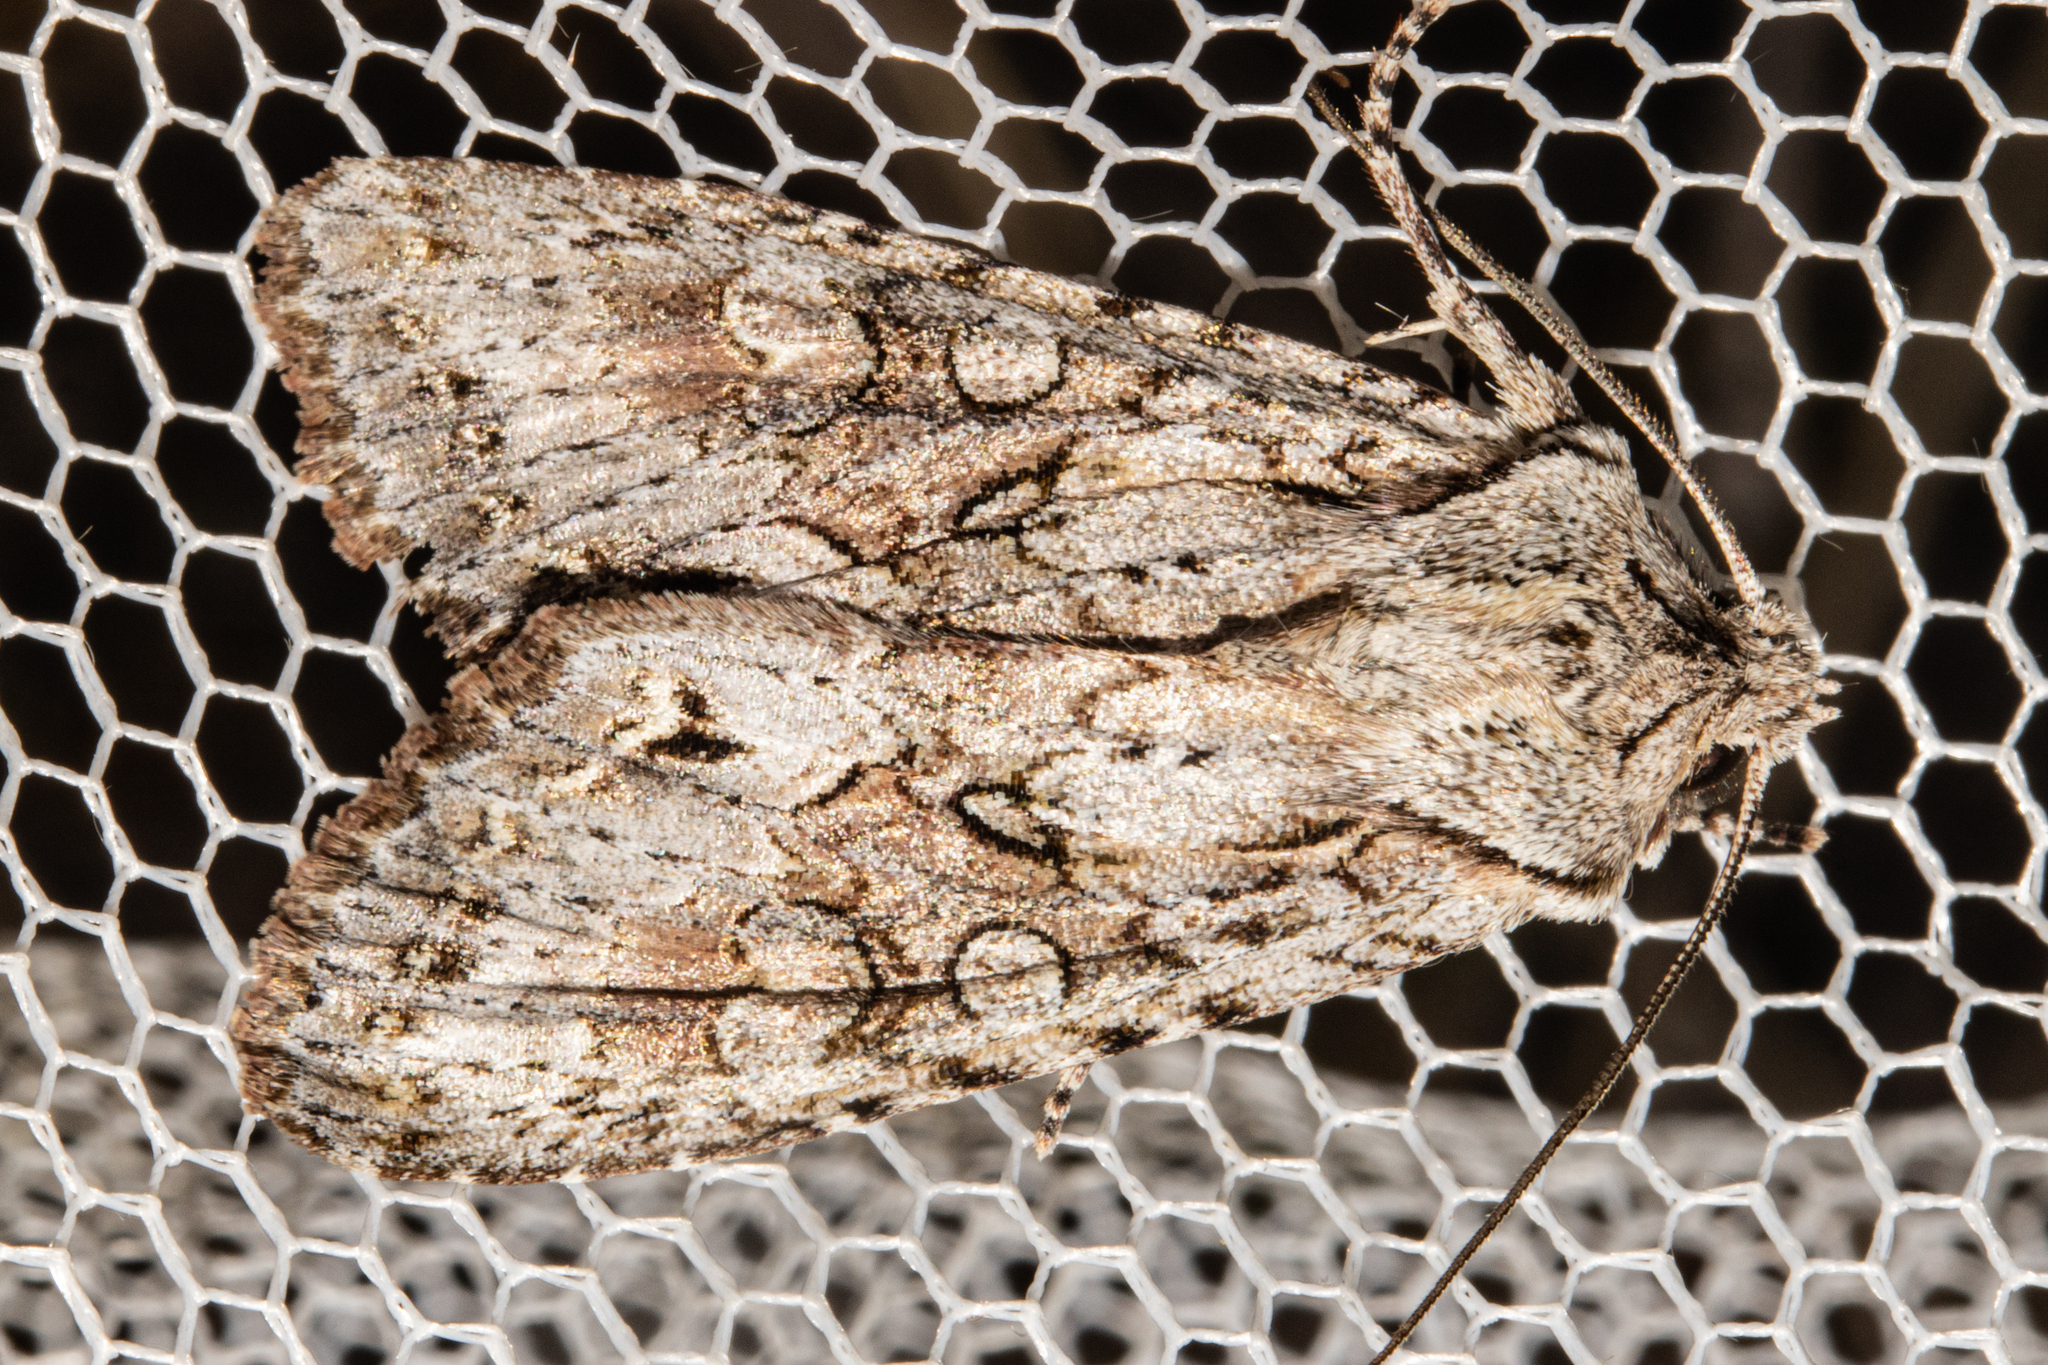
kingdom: Animalia
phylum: Arthropoda
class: Insecta
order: Lepidoptera
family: Noctuidae
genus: Ichneutica
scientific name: Ichneutica mutans
